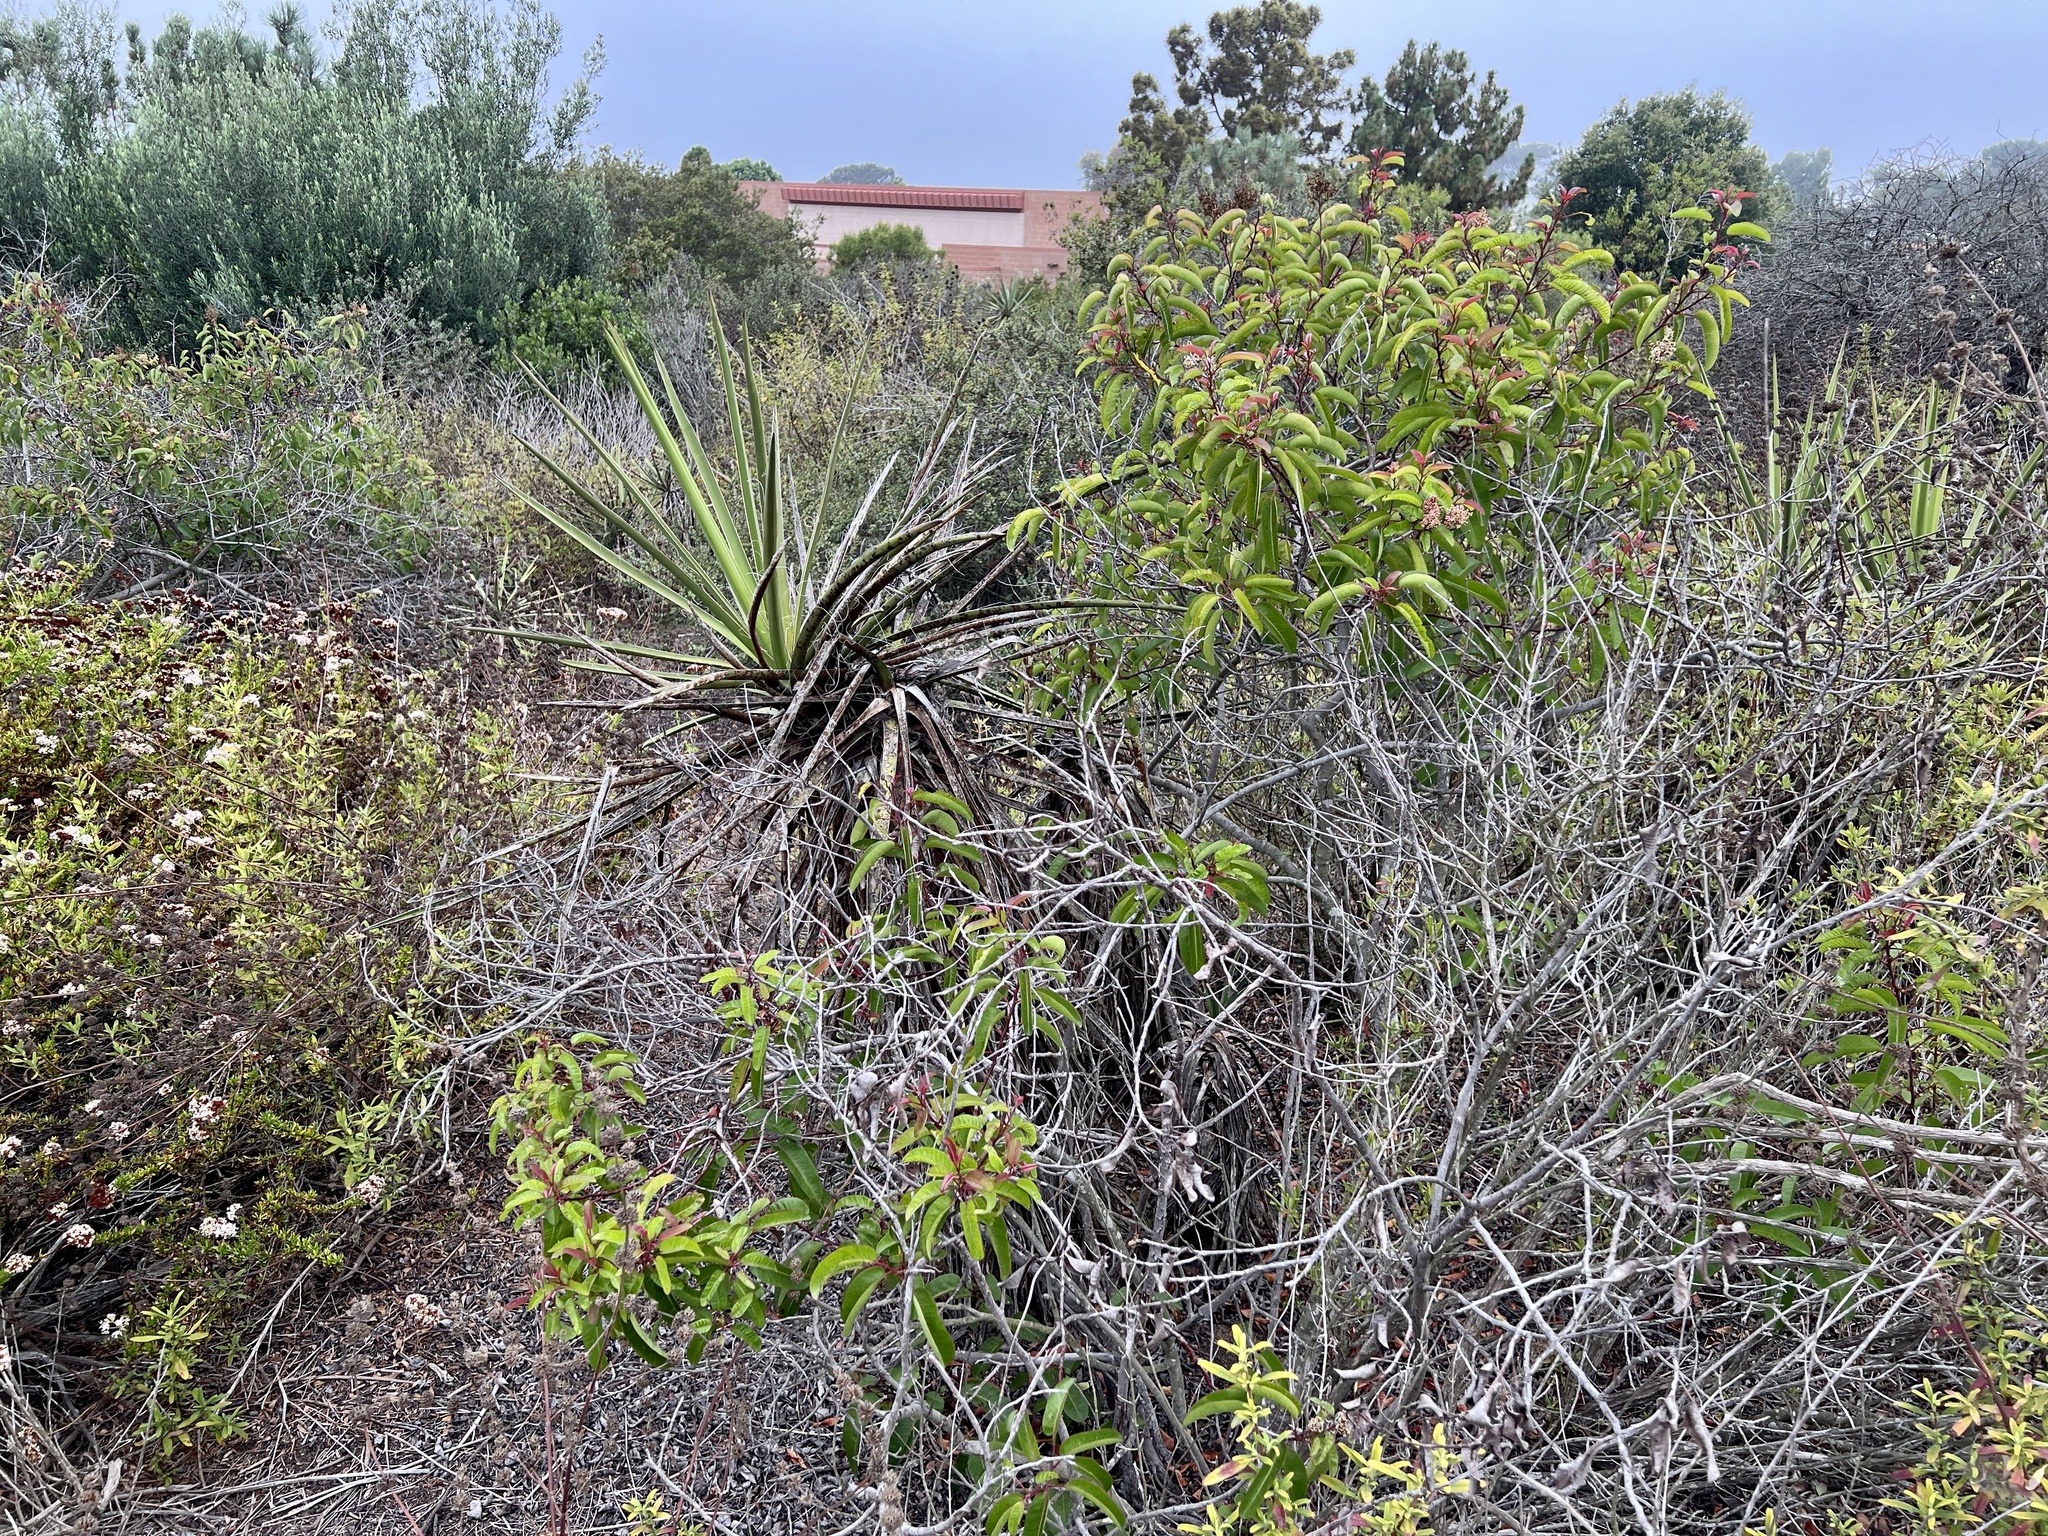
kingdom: Plantae
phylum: Tracheophyta
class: Liliopsida
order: Asparagales
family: Asparagaceae
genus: Yucca
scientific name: Yucca schidigera
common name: Mojave yucca
